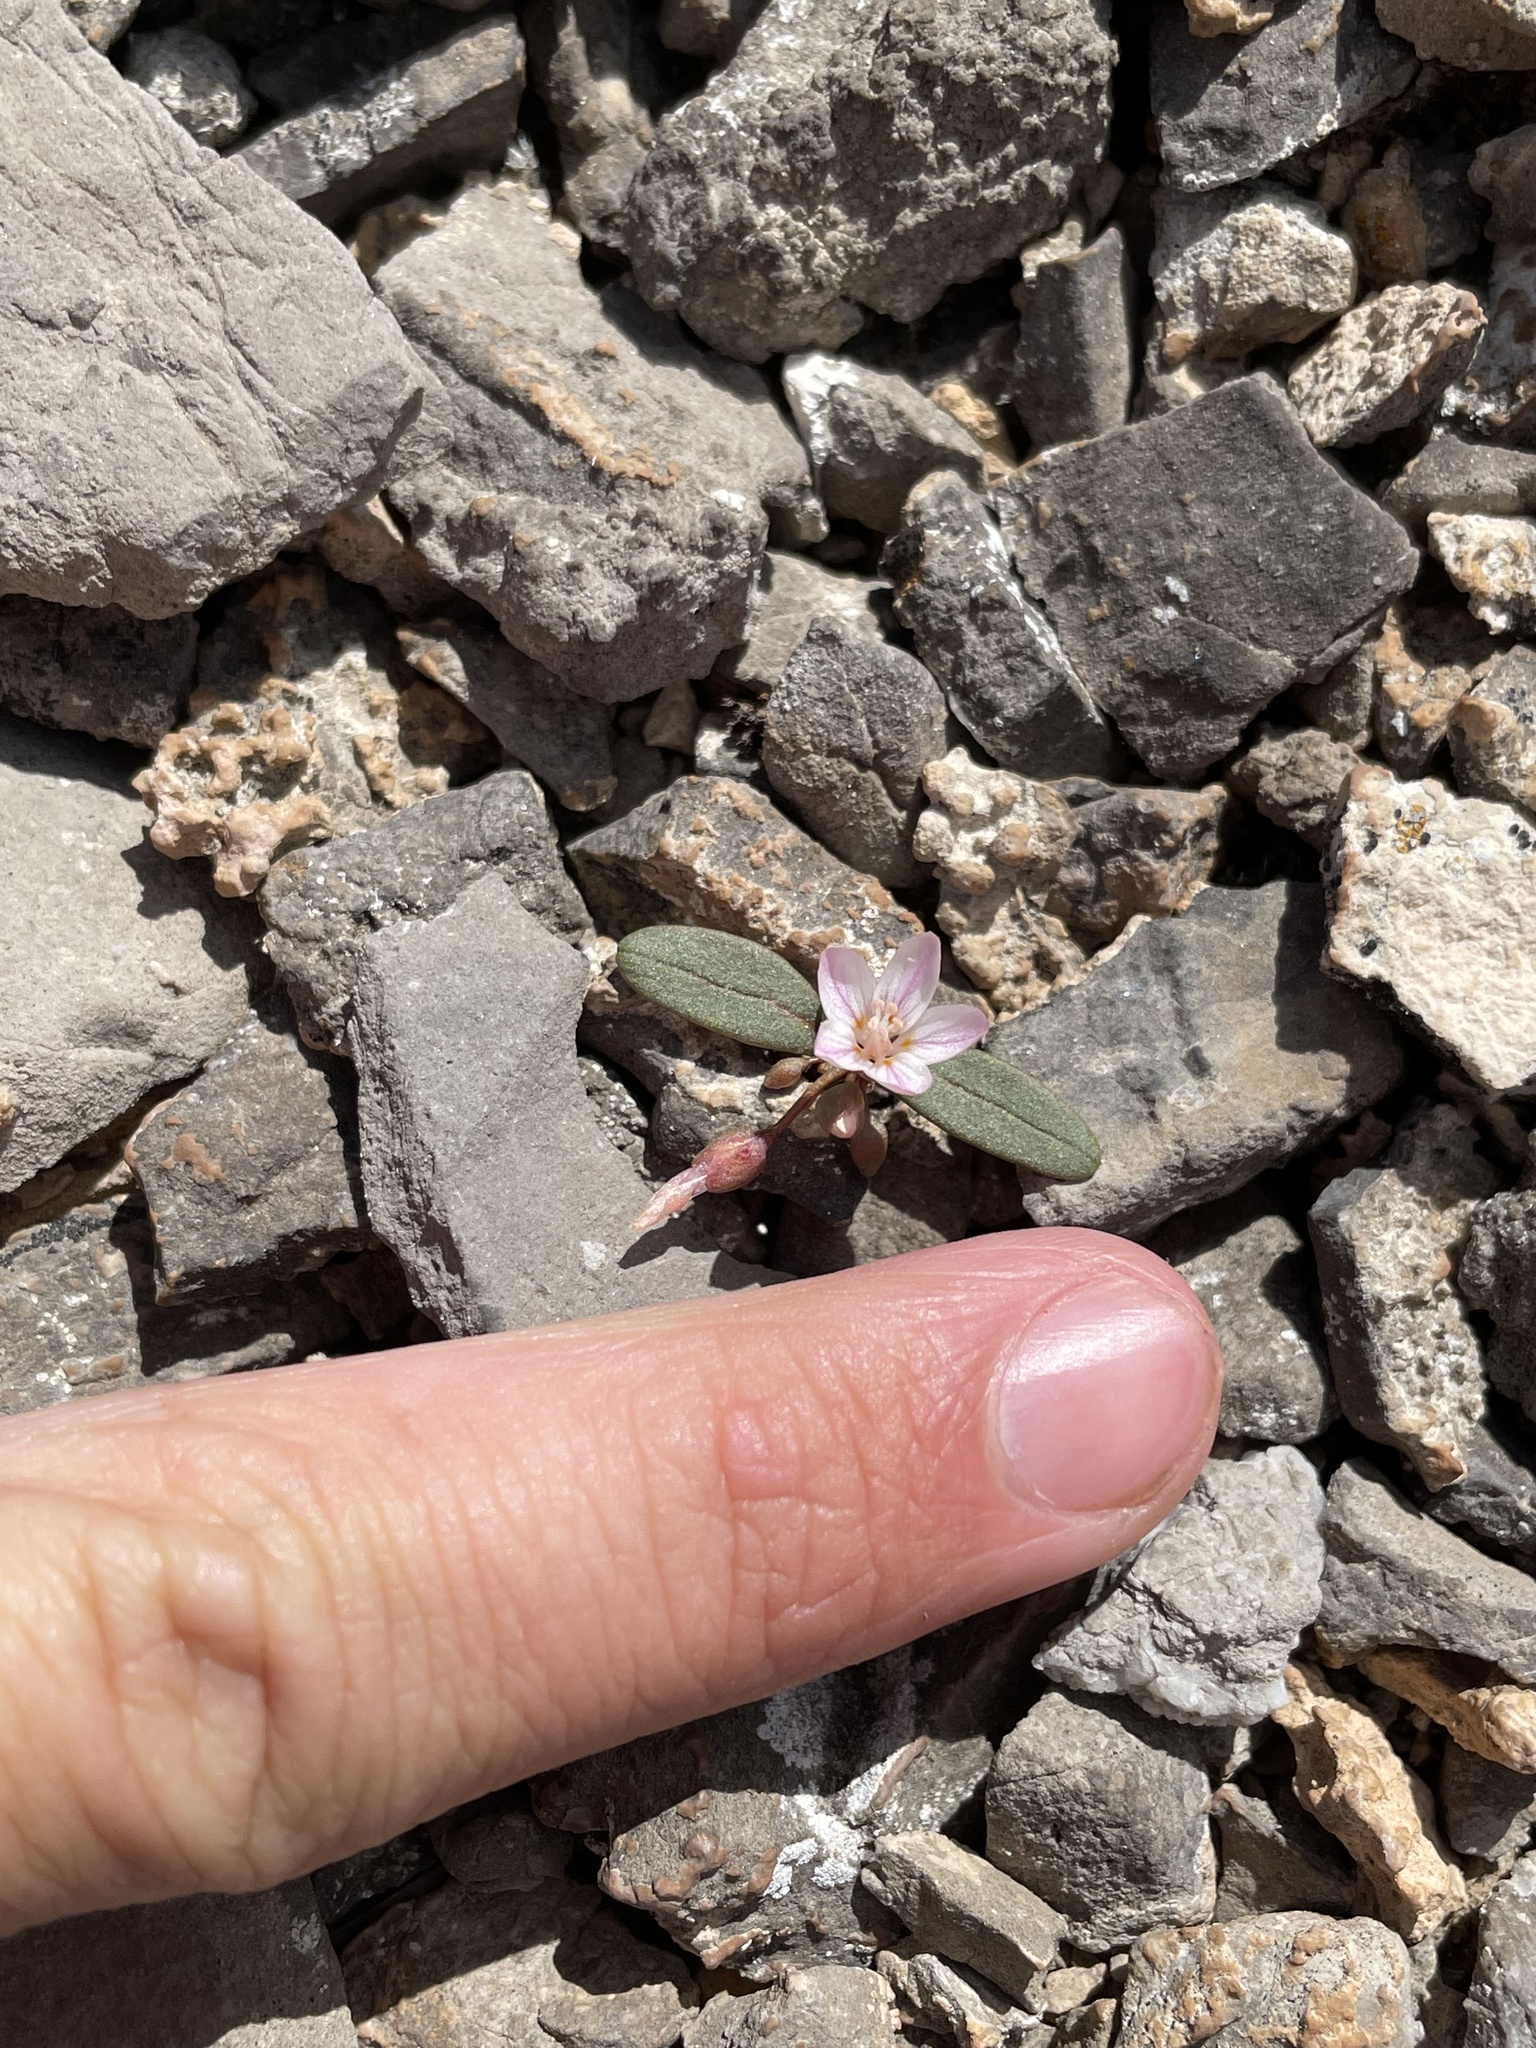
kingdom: Plantae
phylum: Tracheophyta
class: Magnoliopsida
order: Caryophyllales
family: Montiaceae
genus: Claytonia
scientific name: Claytonia panamintensis
